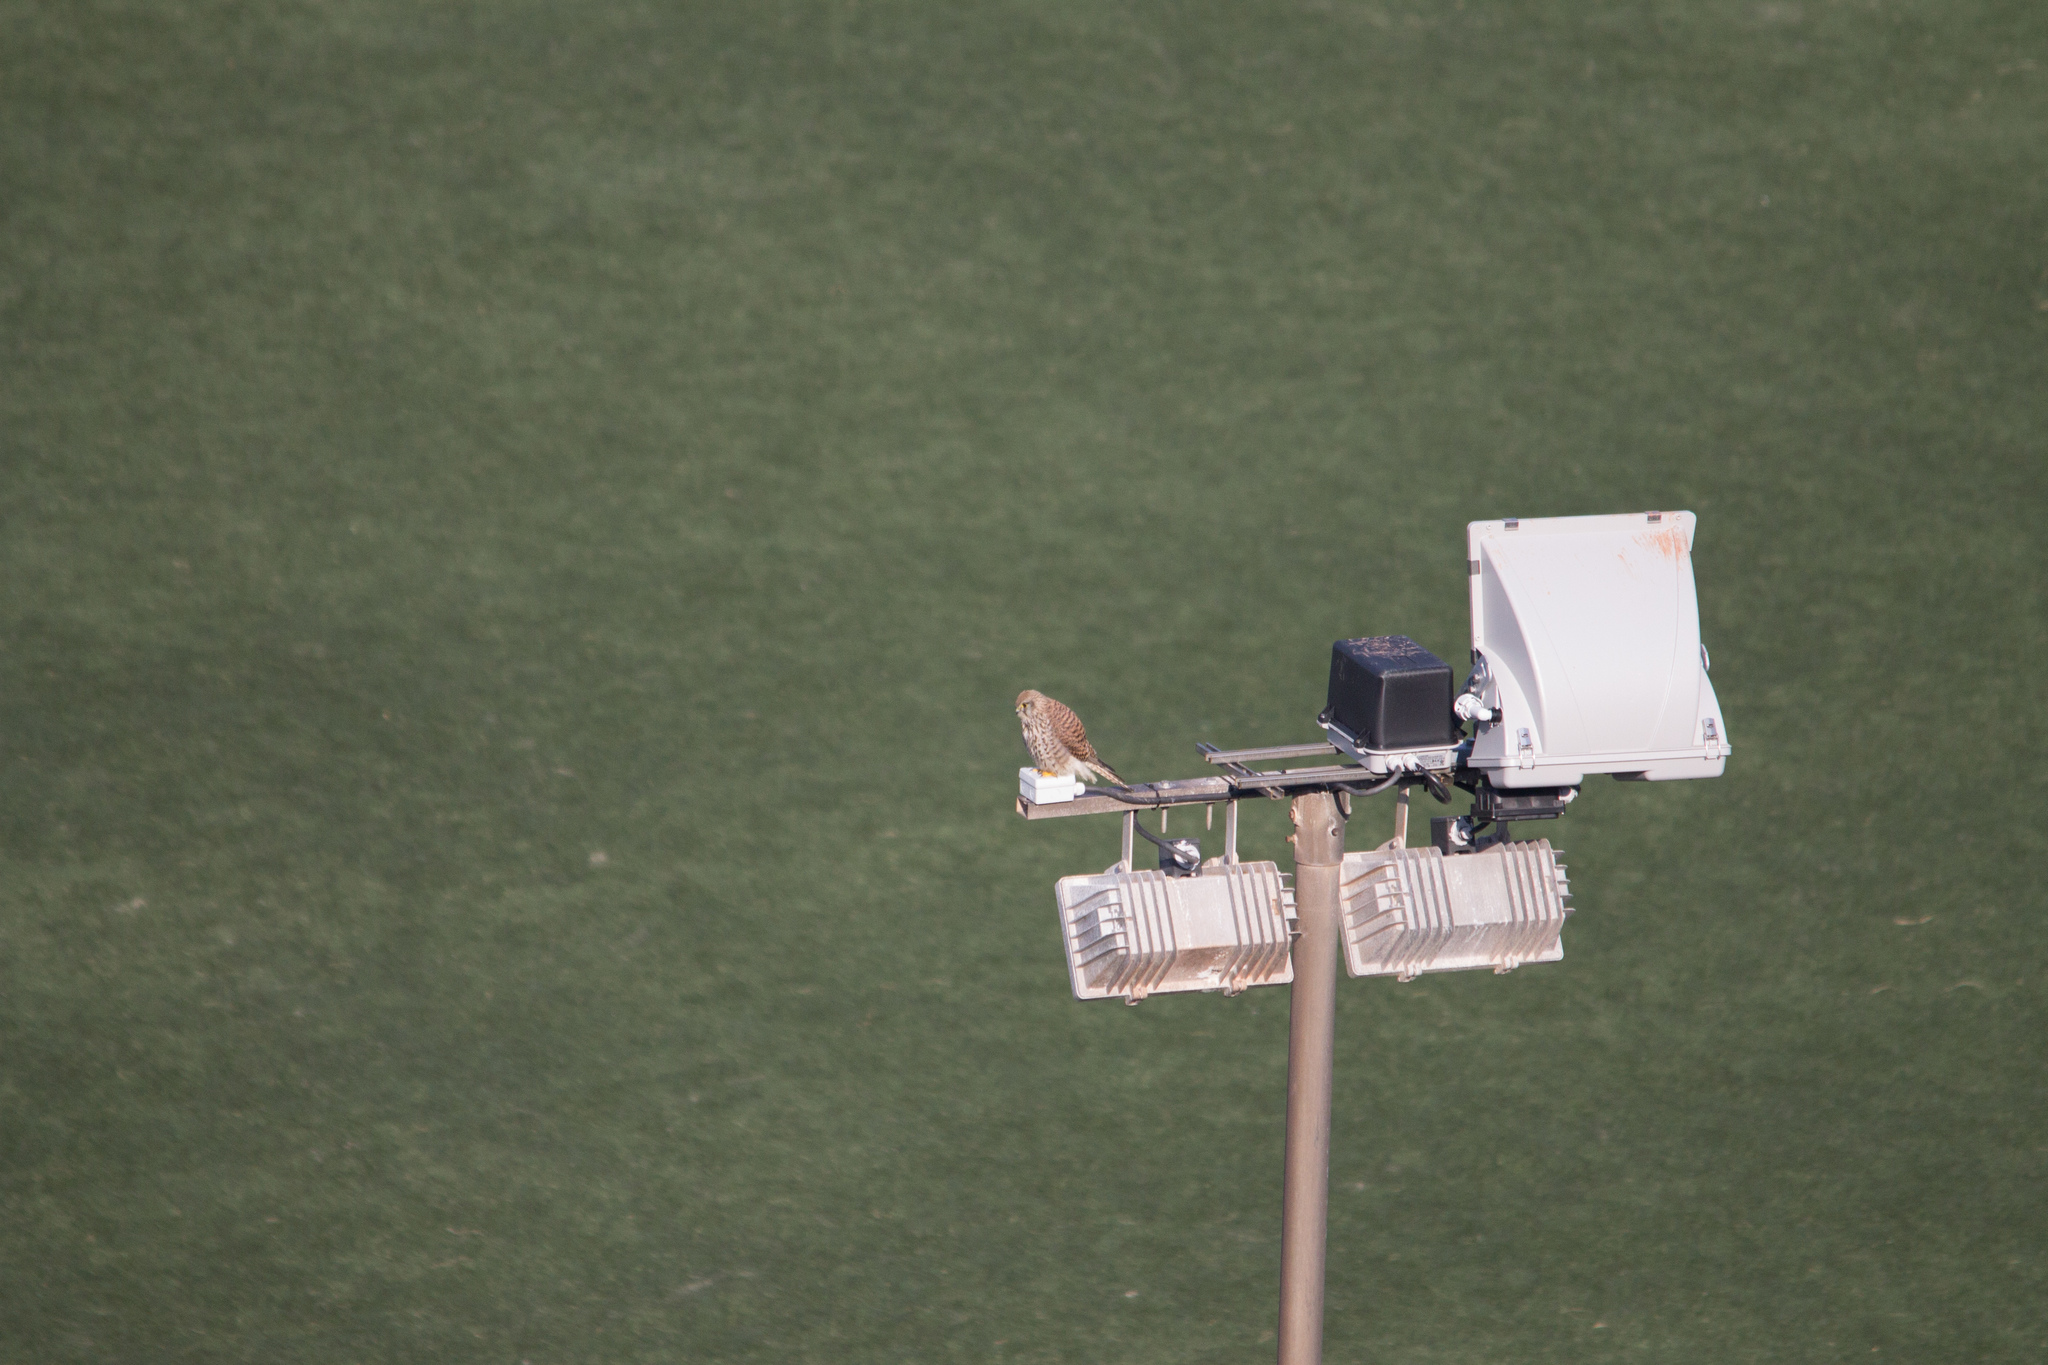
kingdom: Animalia
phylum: Chordata
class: Aves
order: Falconiformes
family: Falconidae
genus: Falco
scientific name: Falco tinnunculus
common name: Common kestrel
